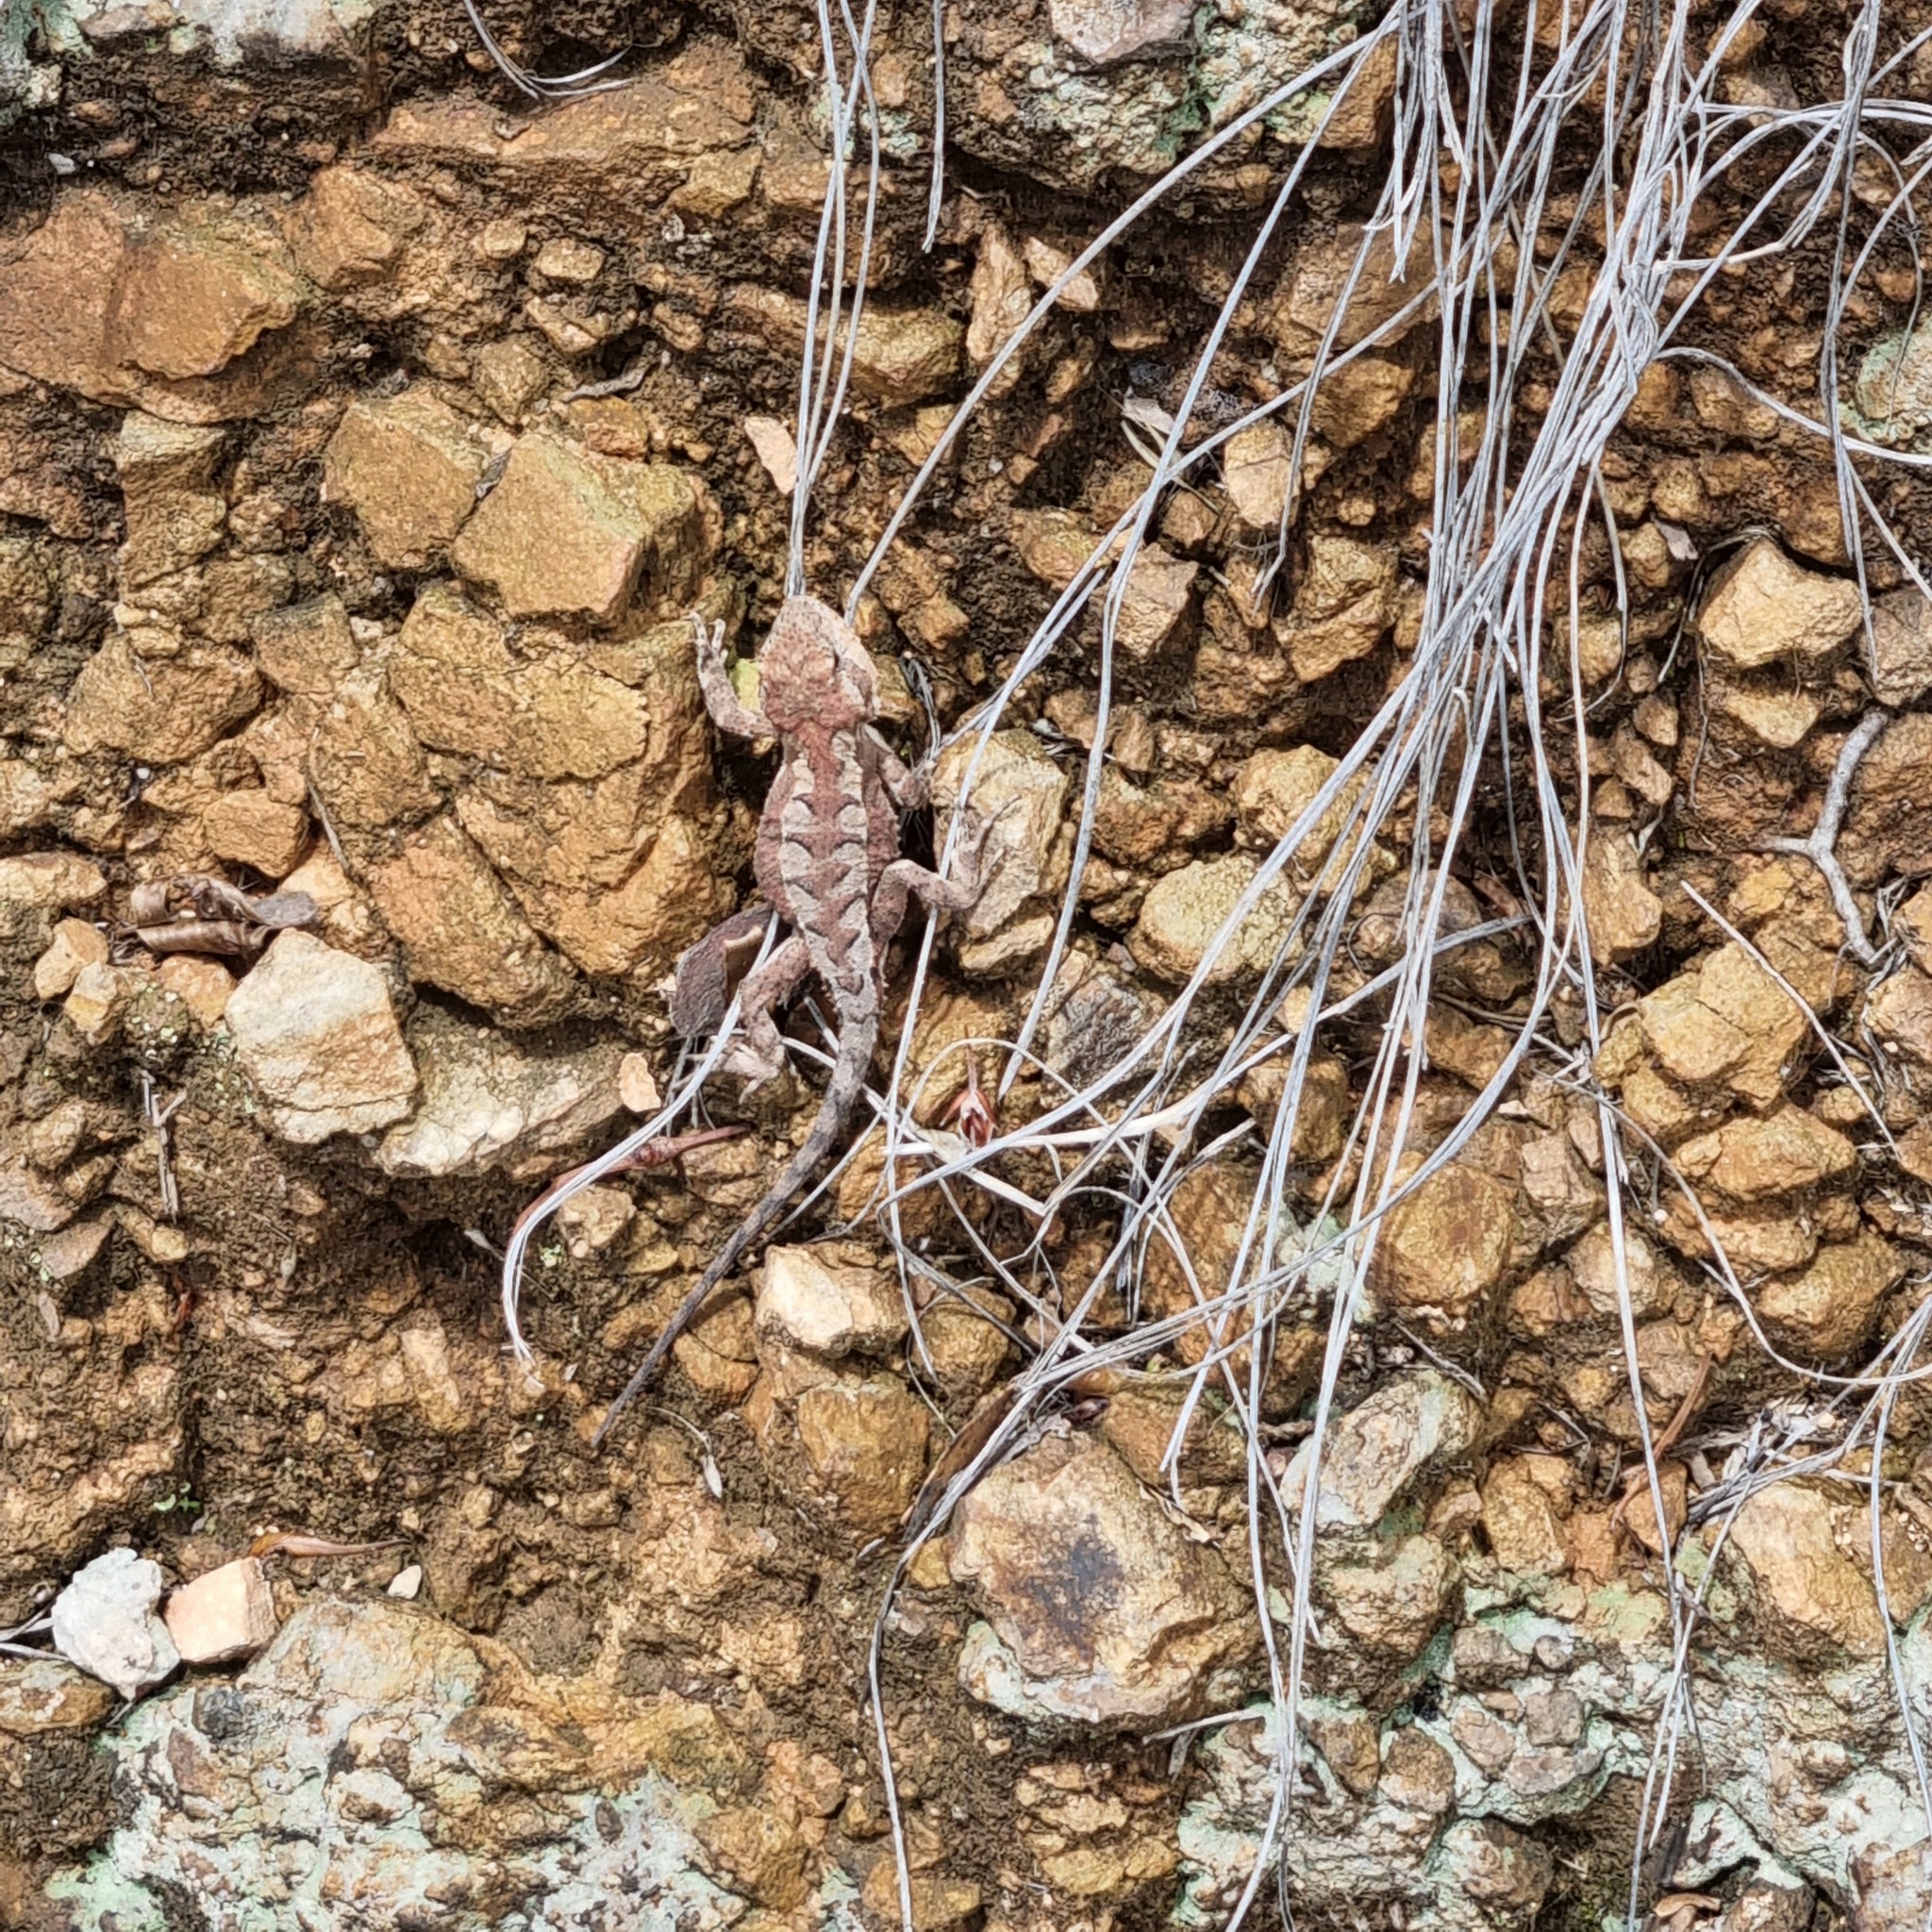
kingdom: Animalia
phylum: Chordata
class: Squamata
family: Agamidae
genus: Rankinia
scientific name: Rankinia diemensis
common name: Mountain dragon
